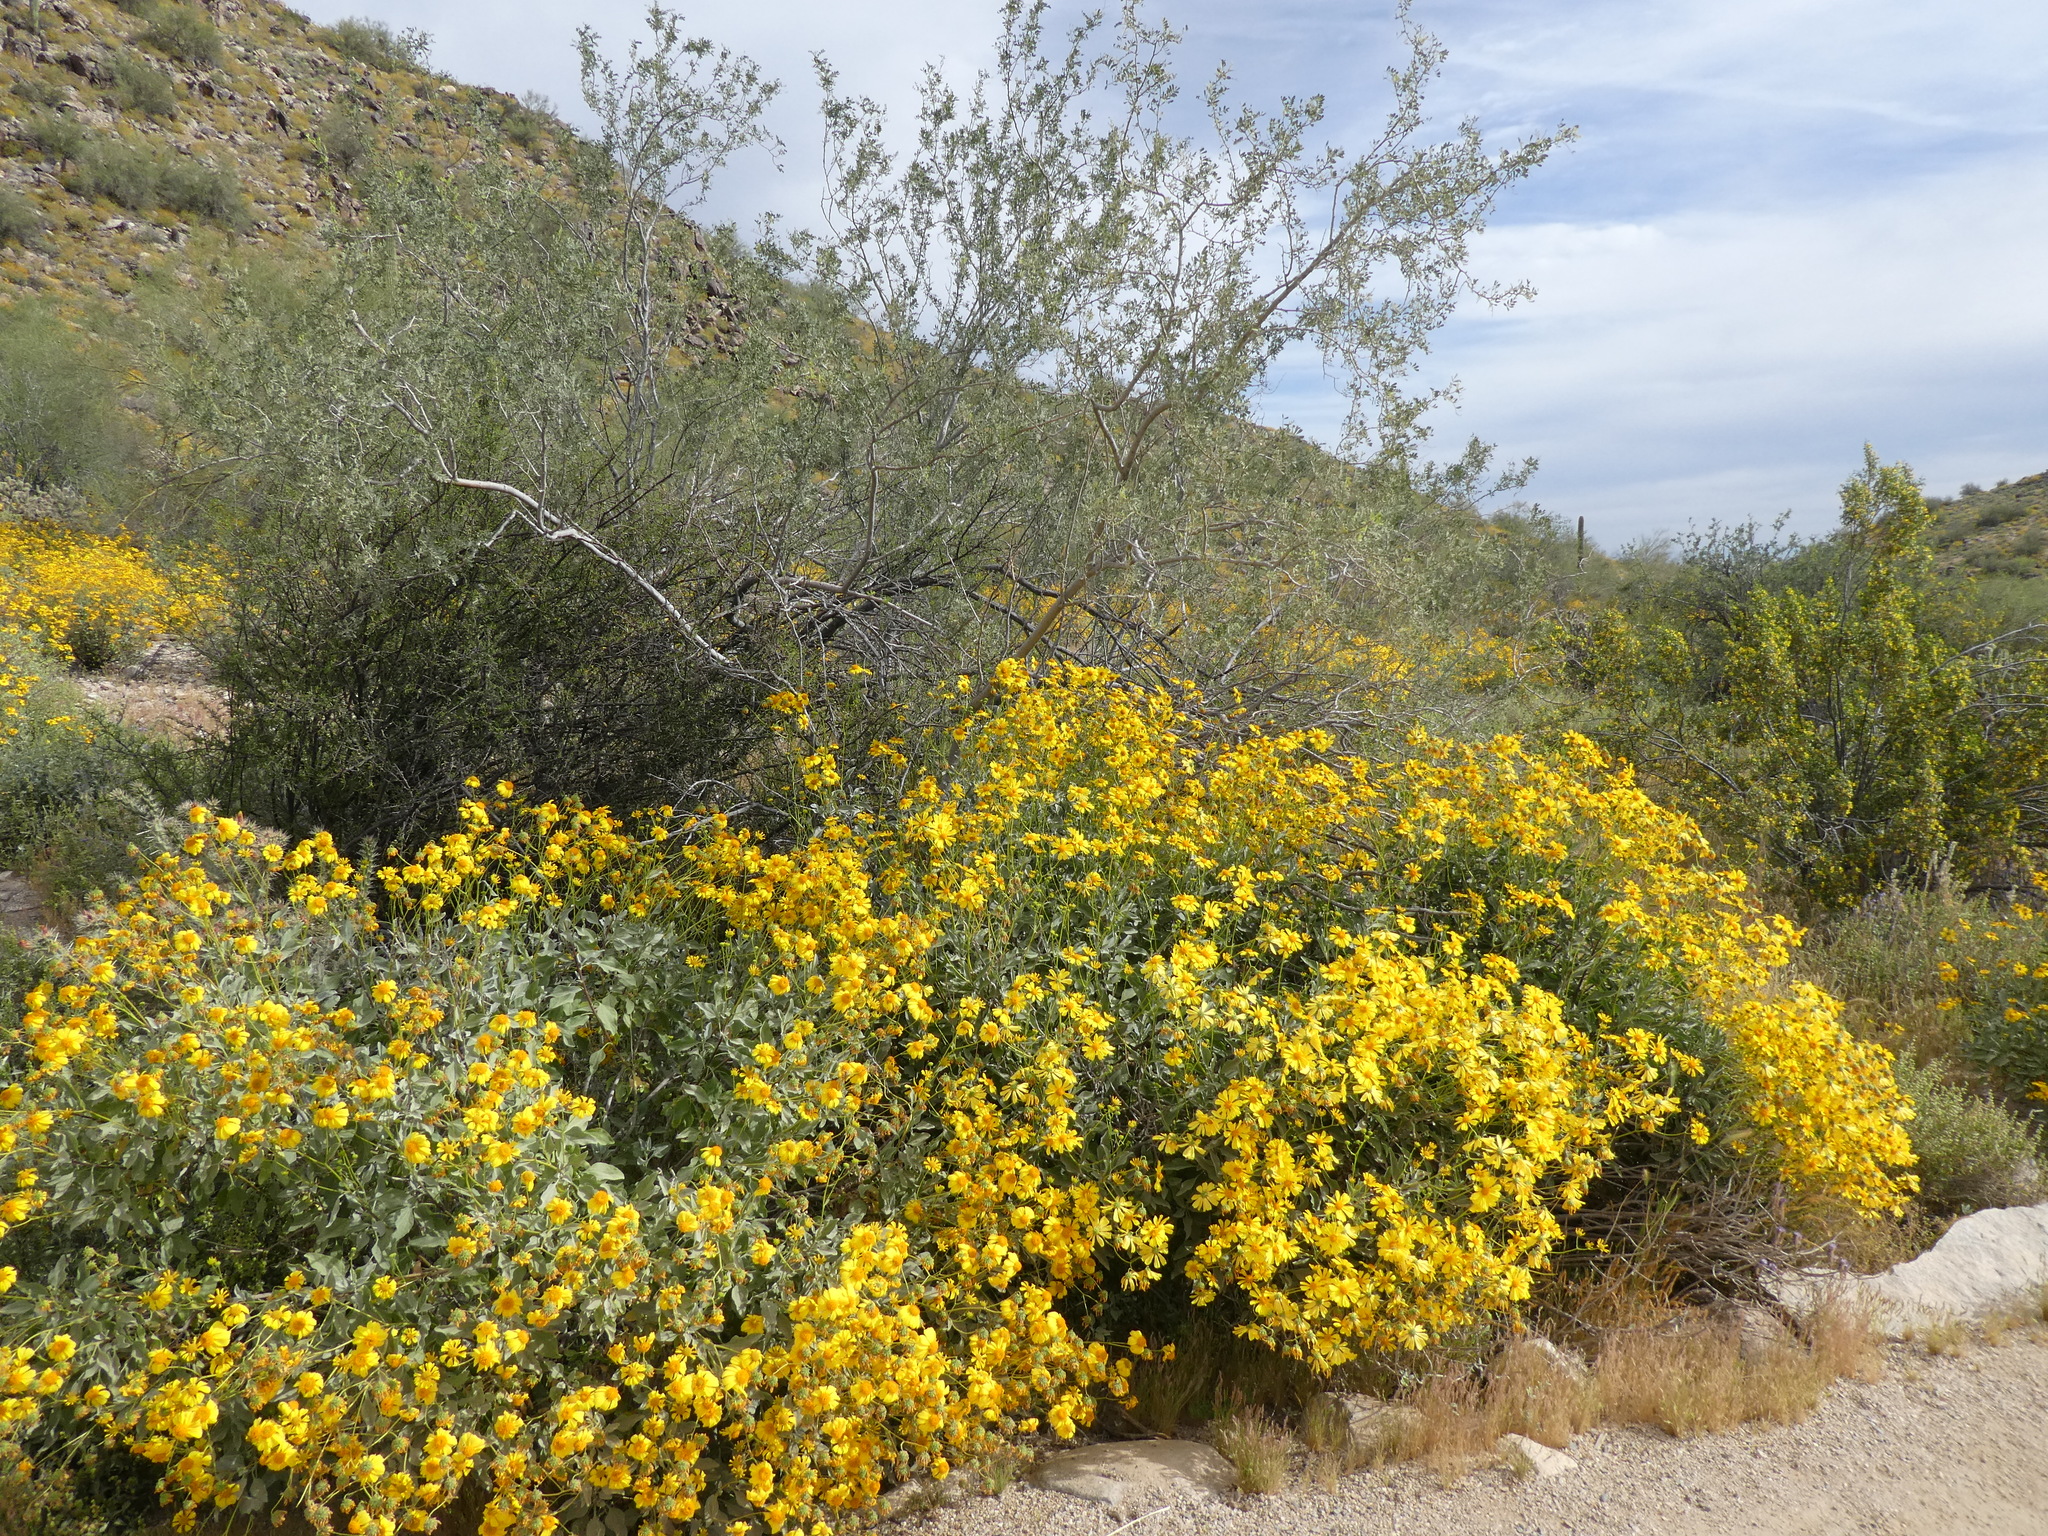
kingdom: Plantae
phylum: Tracheophyta
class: Magnoliopsida
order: Asterales
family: Asteraceae
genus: Encelia
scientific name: Encelia farinosa
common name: Brittlebush
